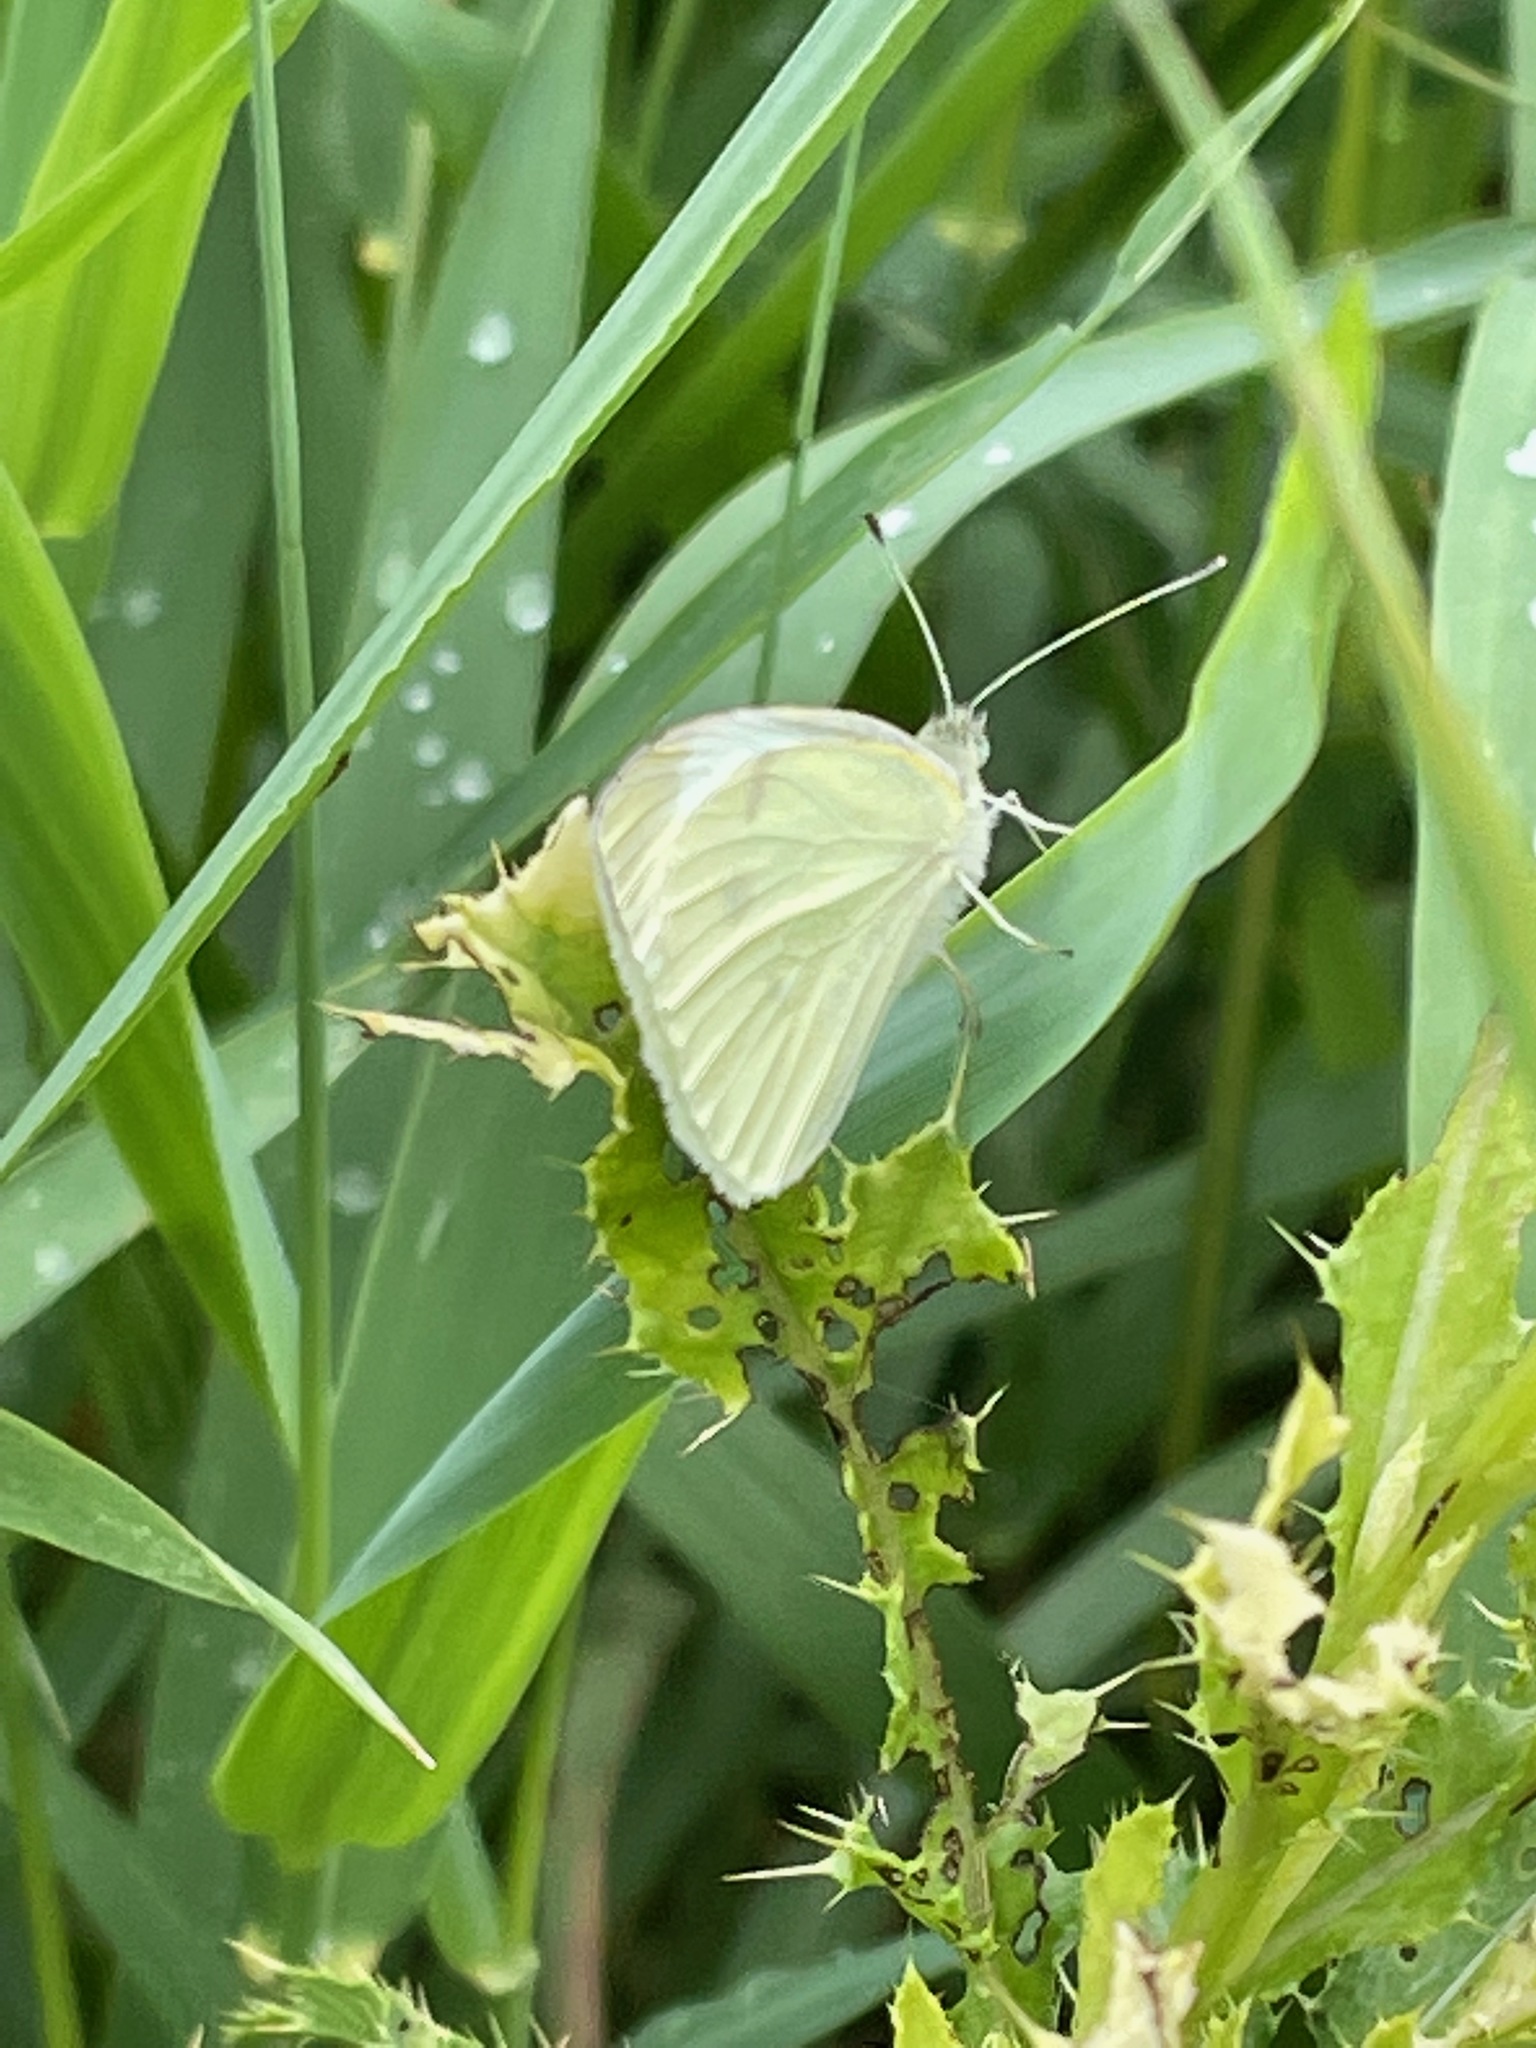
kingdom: Animalia
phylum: Arthropoda
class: Insecta
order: Lepidoptera
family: Pieridae
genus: Pieris
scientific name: Pieris rapae
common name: Small white
